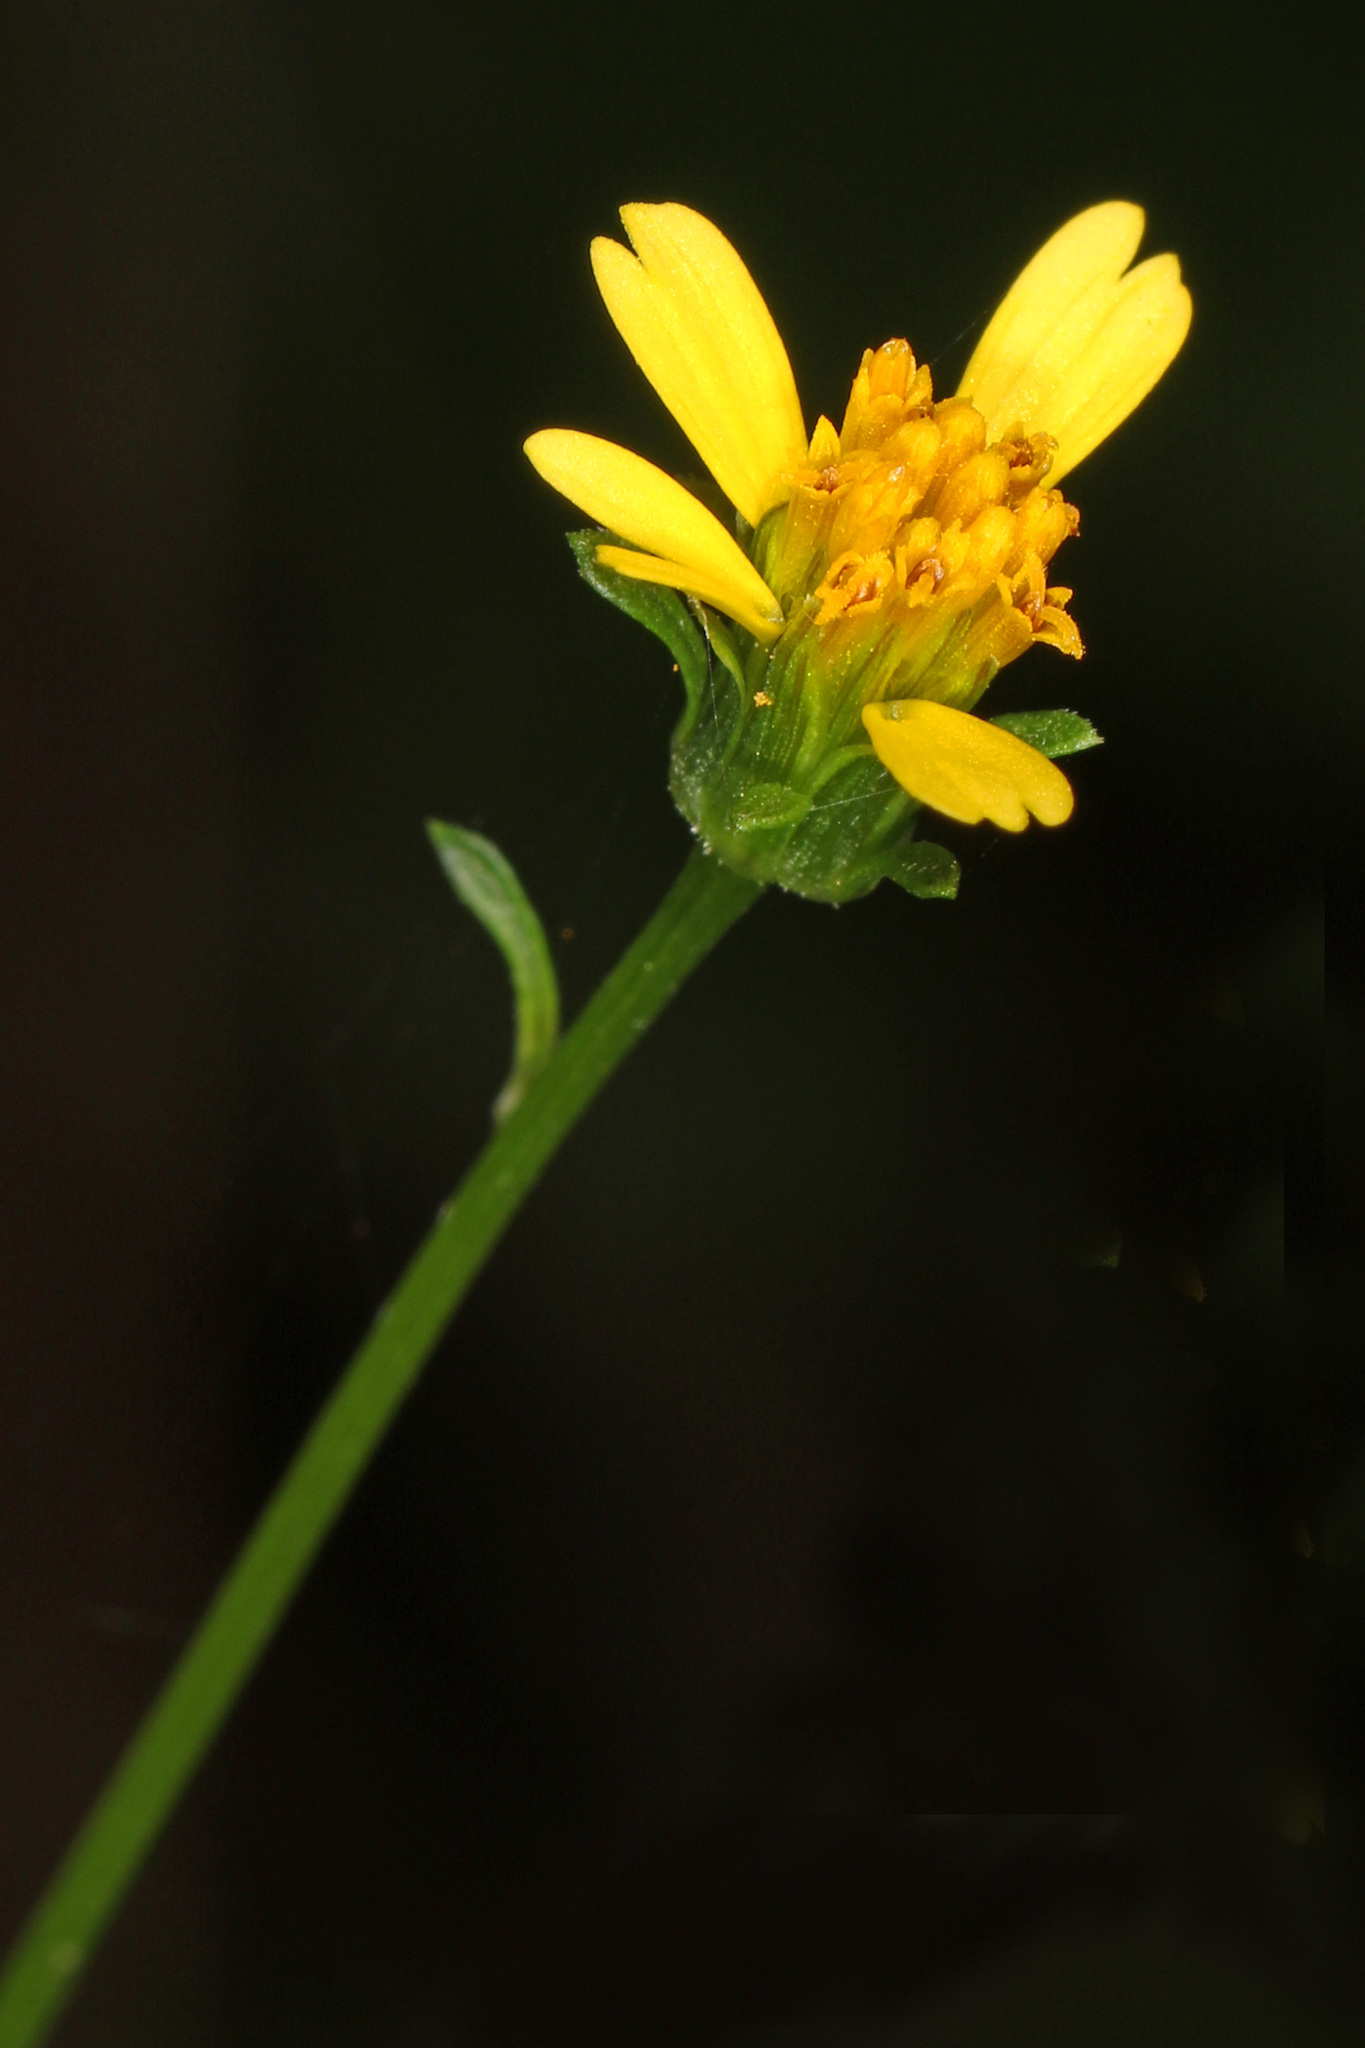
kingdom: Plantae
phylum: Tracheophyta
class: Magnoliopsida
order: Asterales
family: Asteraceae
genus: Bidens
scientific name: Bidens bipinnata
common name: Spanish-needles
